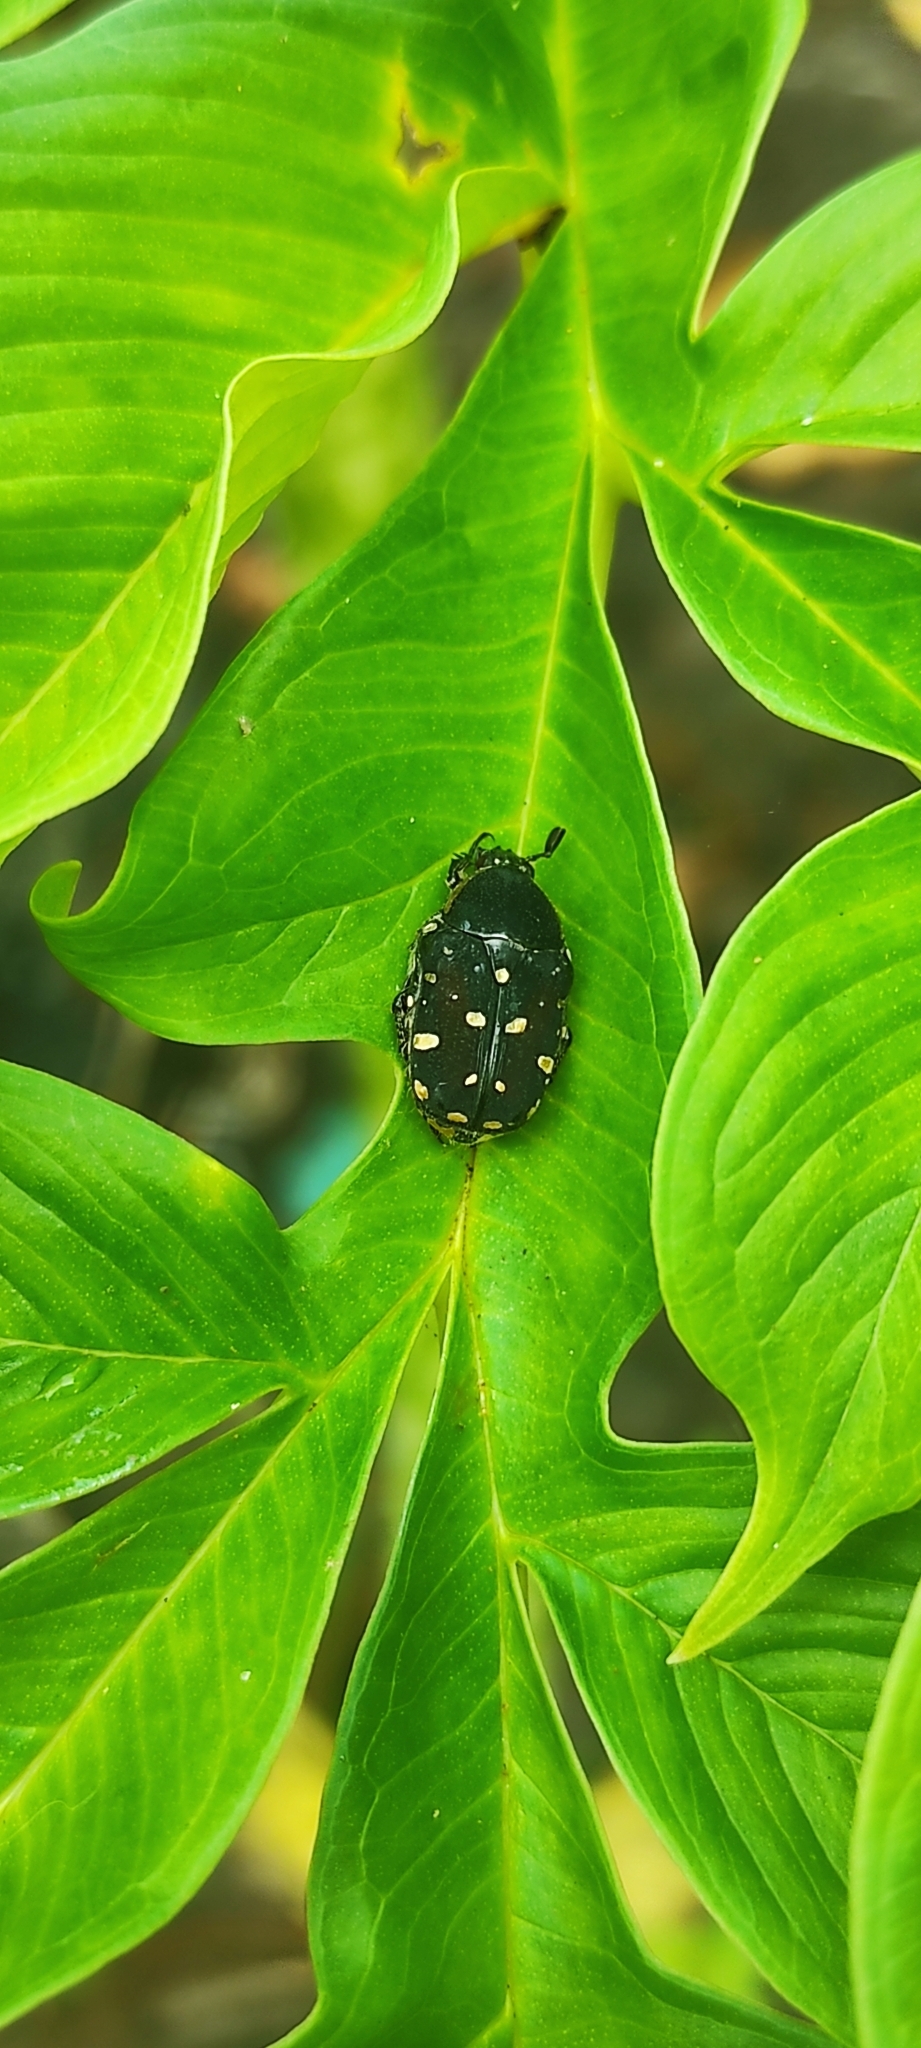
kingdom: Animalia
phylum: Arthropoda
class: Insecta
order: Coleoptera
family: Scarabaeidae
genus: Gametis
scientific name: Gametis jucunda
